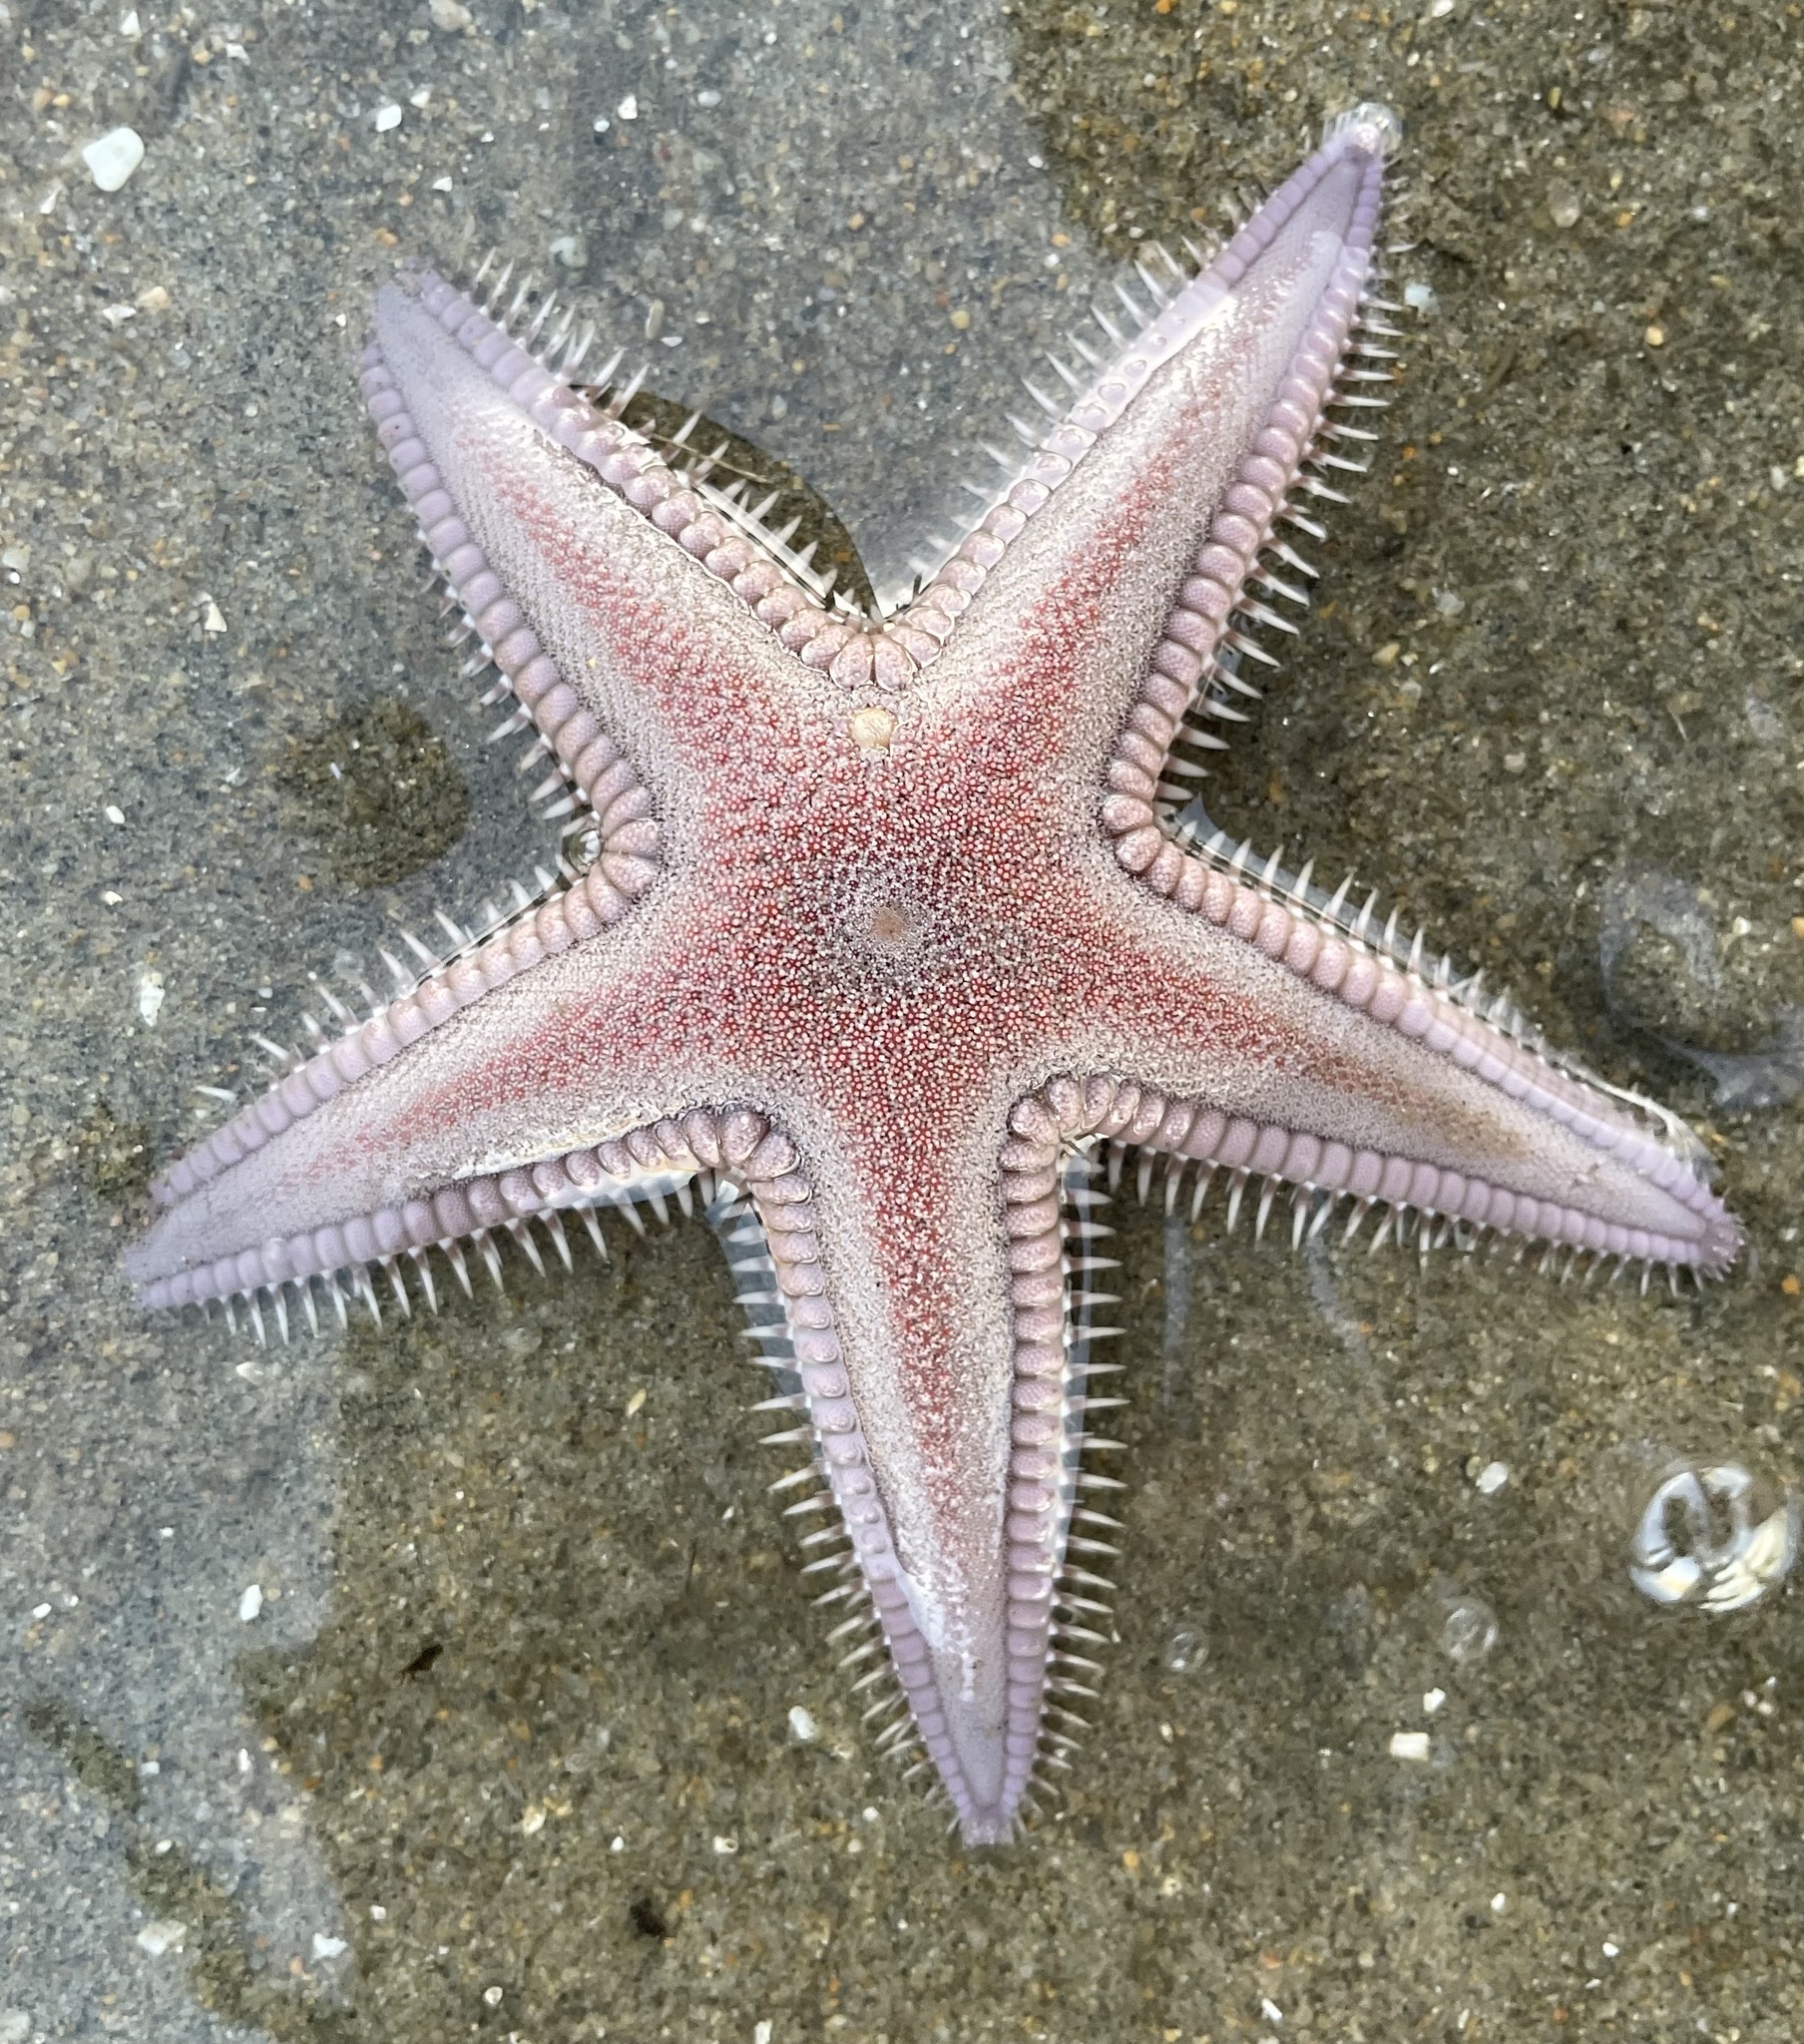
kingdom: Animalia
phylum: Echinodermata
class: Asteroidea
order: Paxillosida
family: Astropectinidae
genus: Astropecten
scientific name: Astropecten verrilli de
